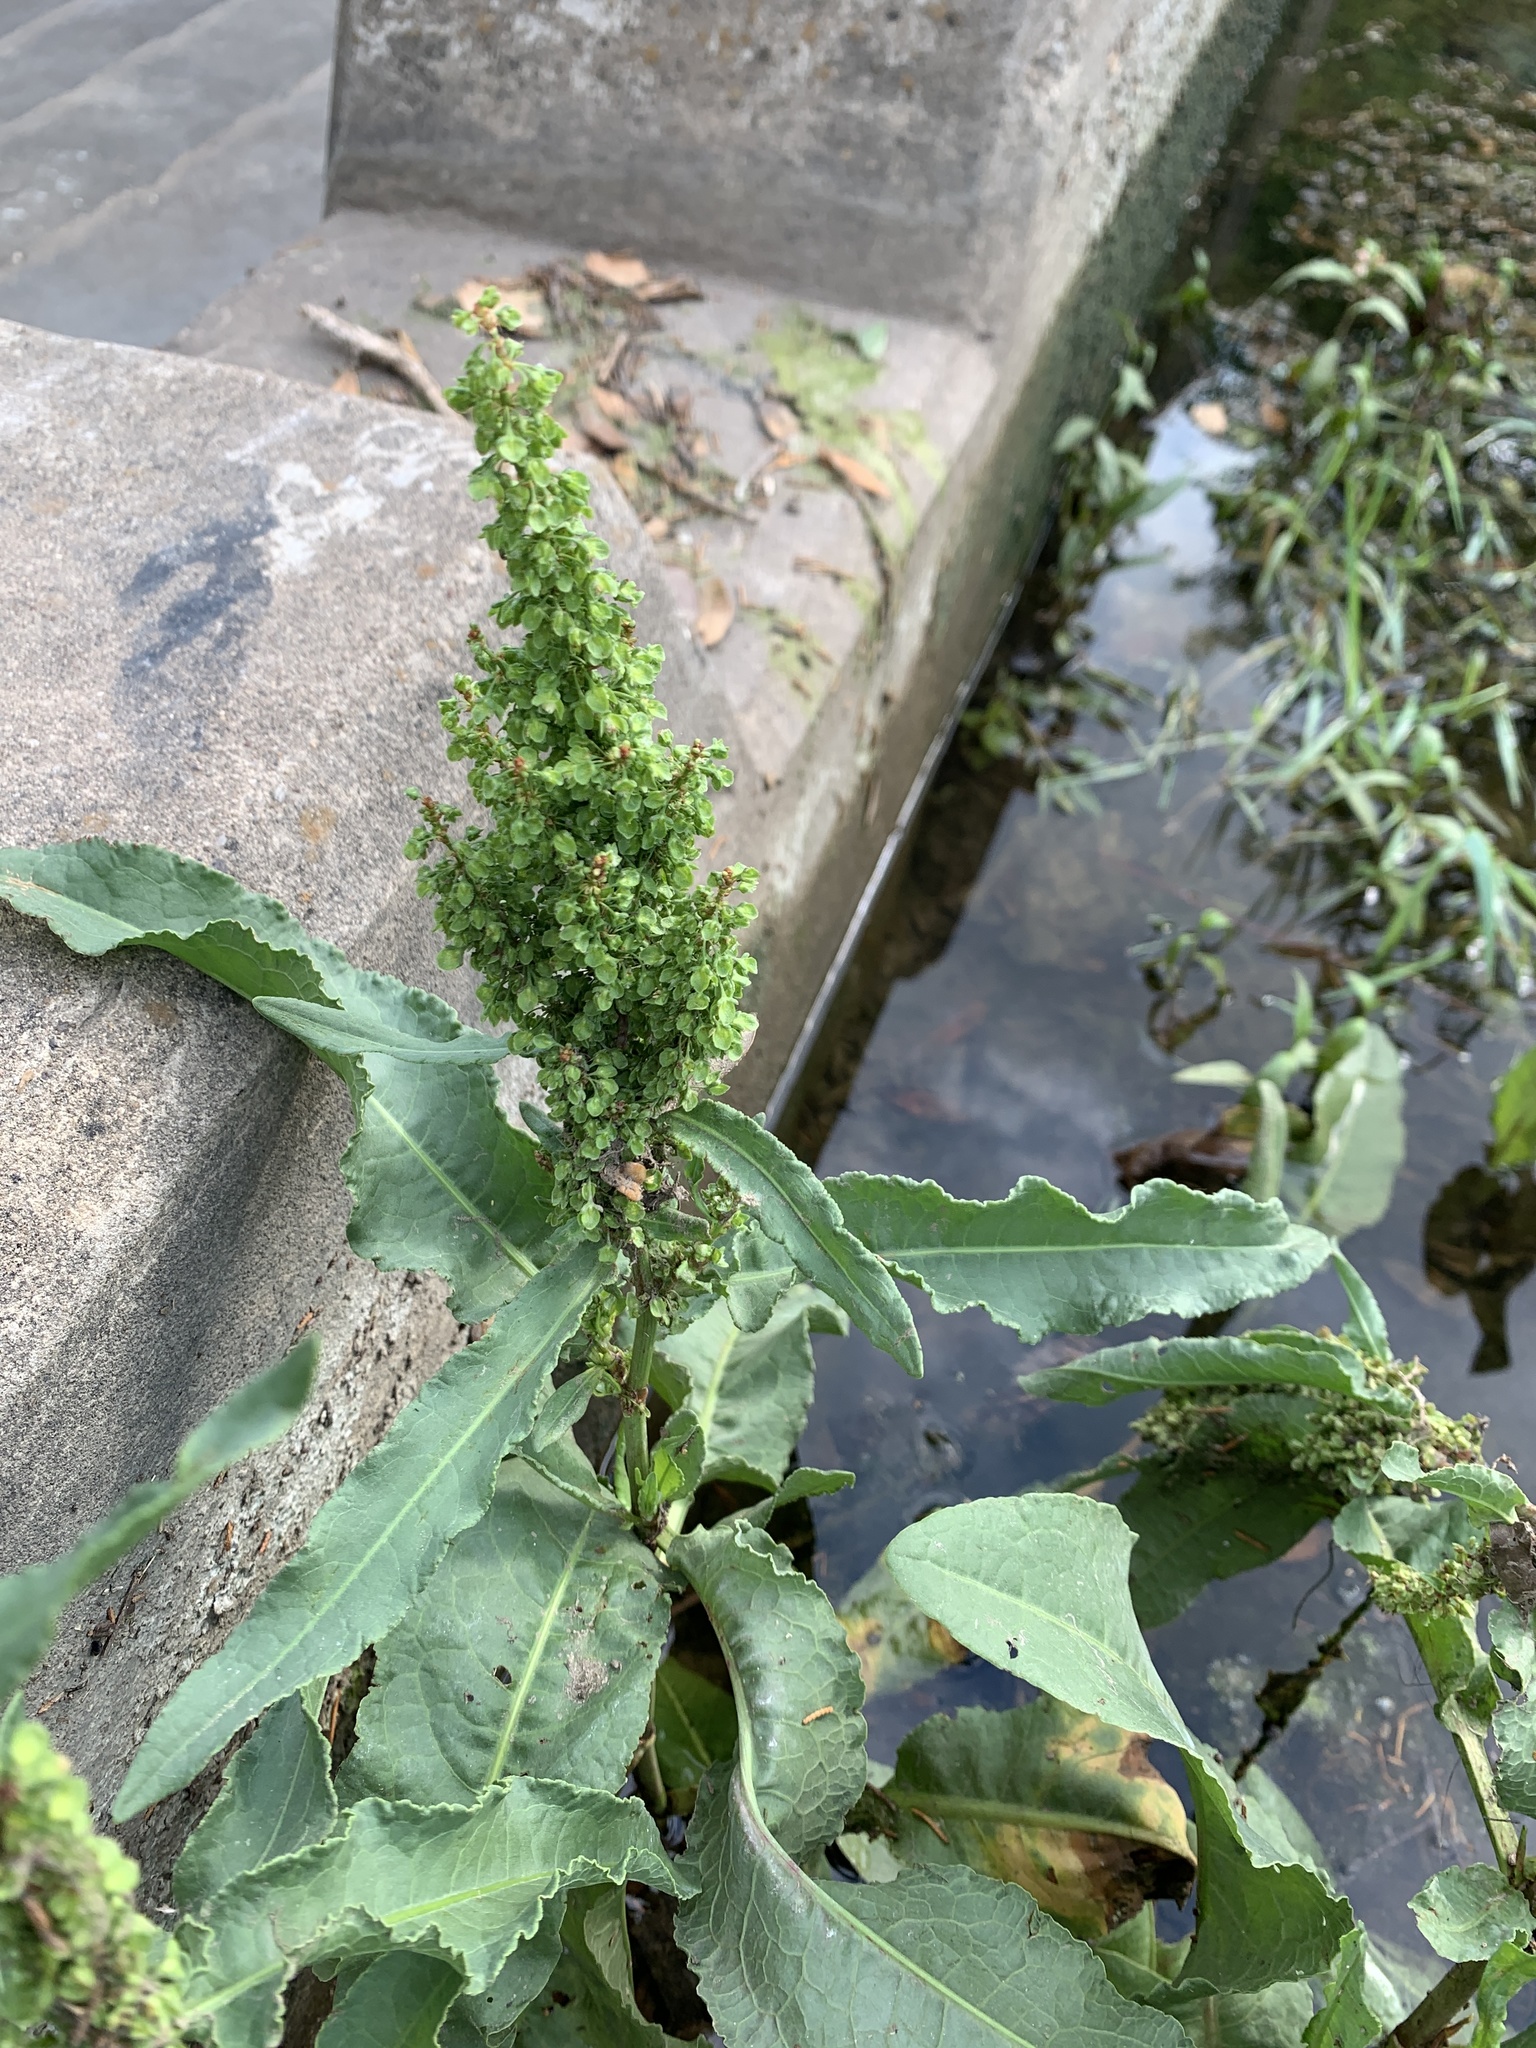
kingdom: Plantae
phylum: Tracheophyta
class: Magnoliopsida
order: Caryophyllales
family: Polygonaceae
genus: Rumex
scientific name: Rumex crispus
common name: Curled dock
